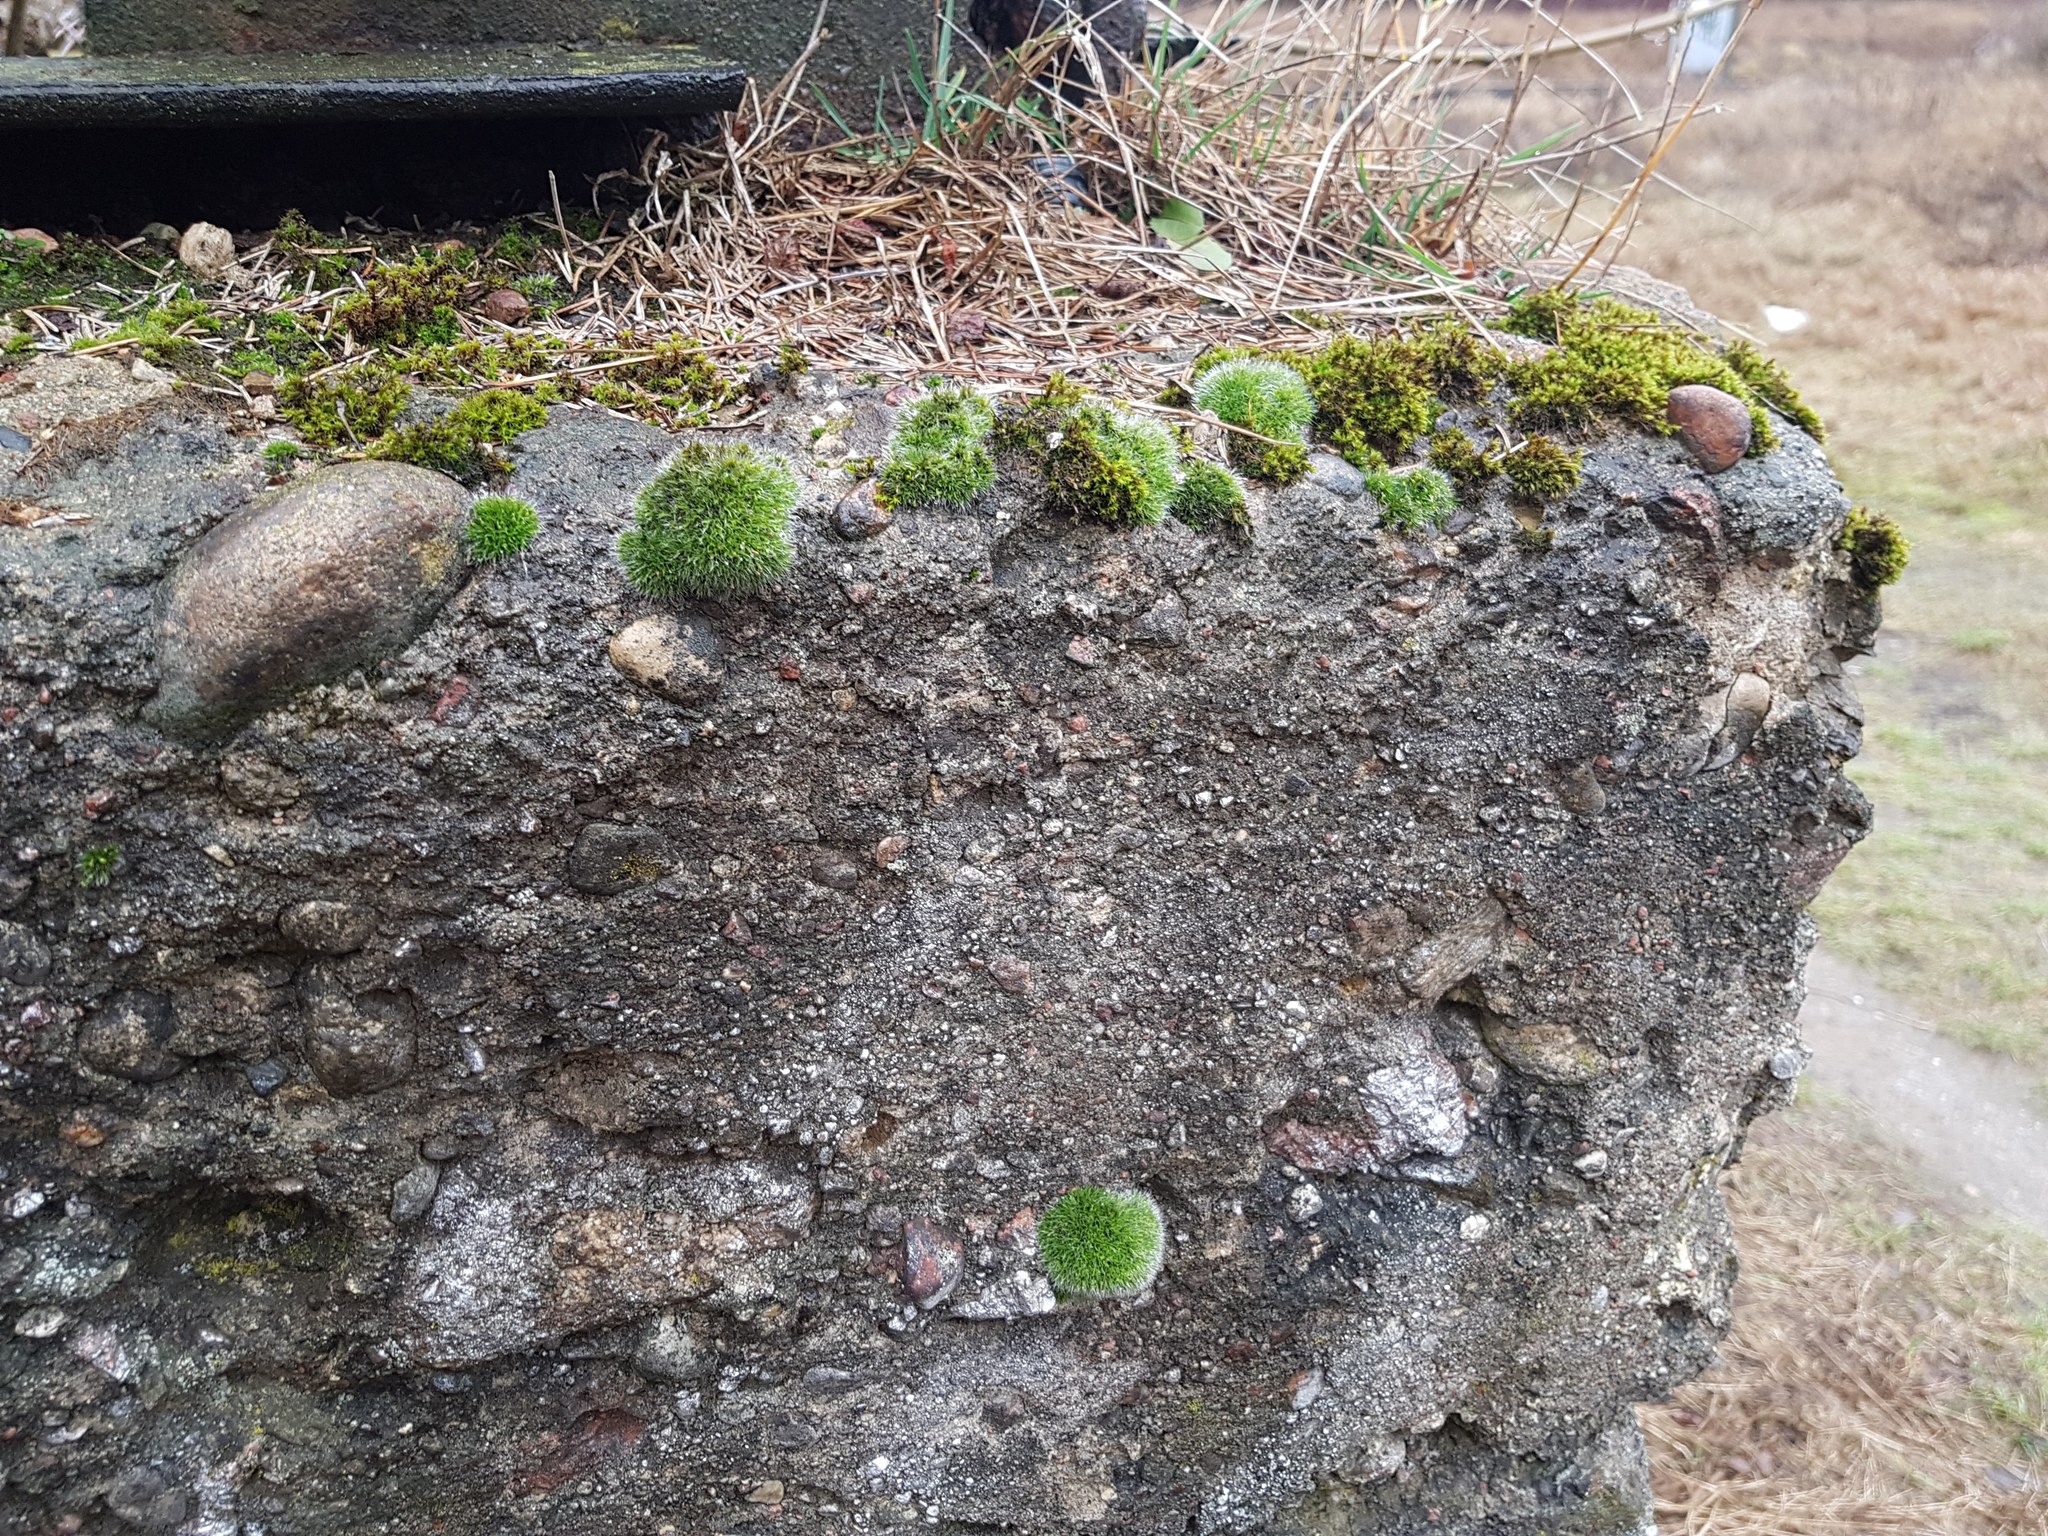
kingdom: Plantae
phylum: Bryophyta
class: Bryopsida
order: Grimmiales
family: Grimmiaceae
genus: Grimmia
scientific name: Grimmia pulvinata
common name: Grey-cushioned grimmia
